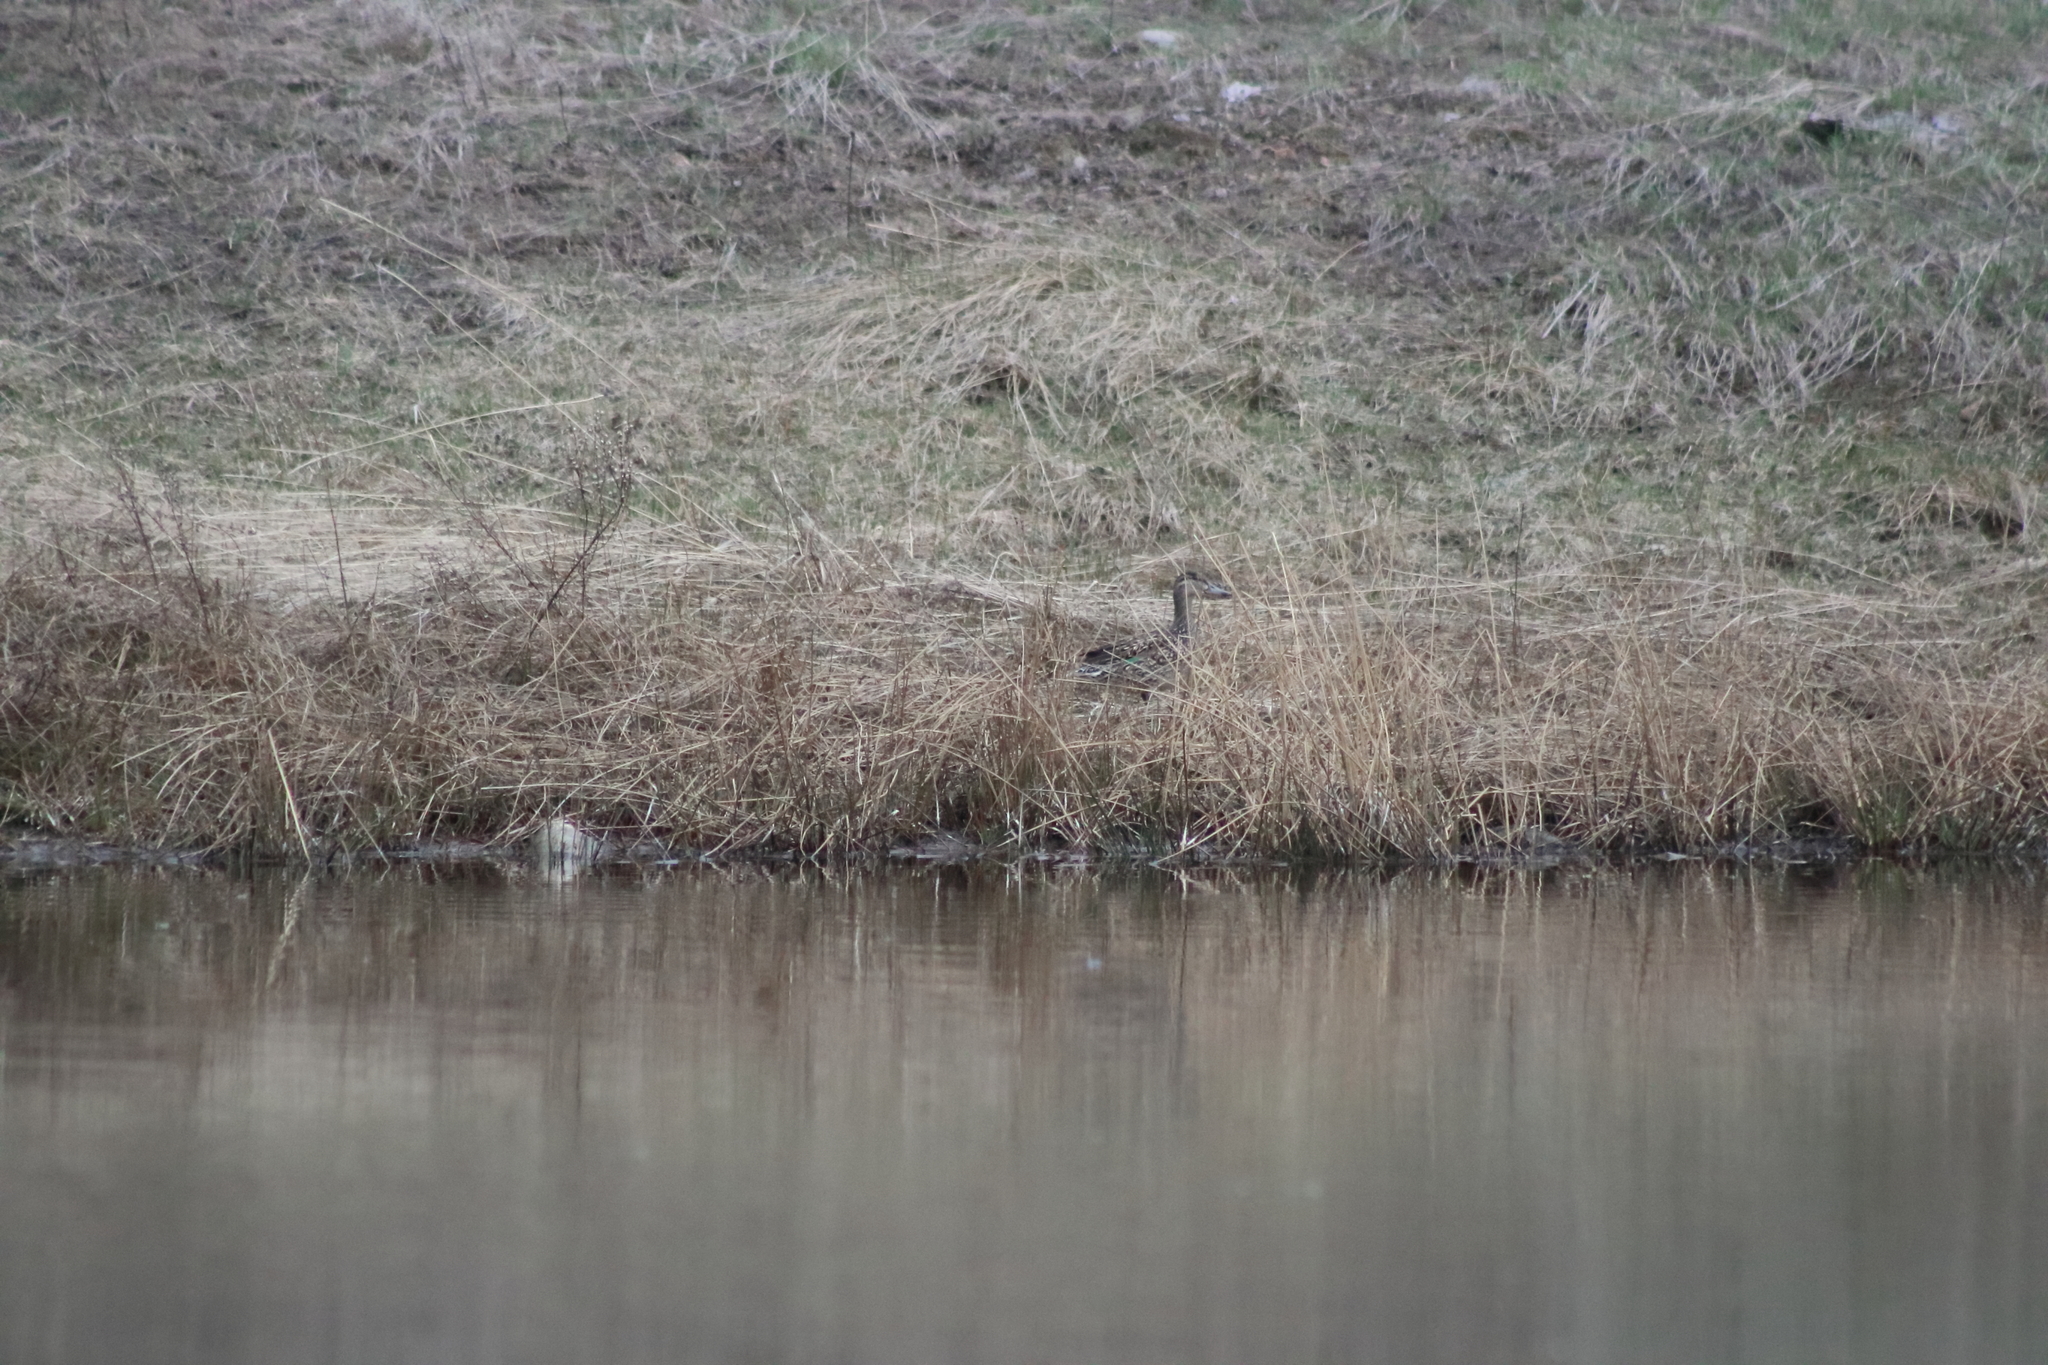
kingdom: Animalia
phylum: Chordata
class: Aves
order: Anseriformes
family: Anatidae
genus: Anas
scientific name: Anas platyrhynchos
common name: Mallard
